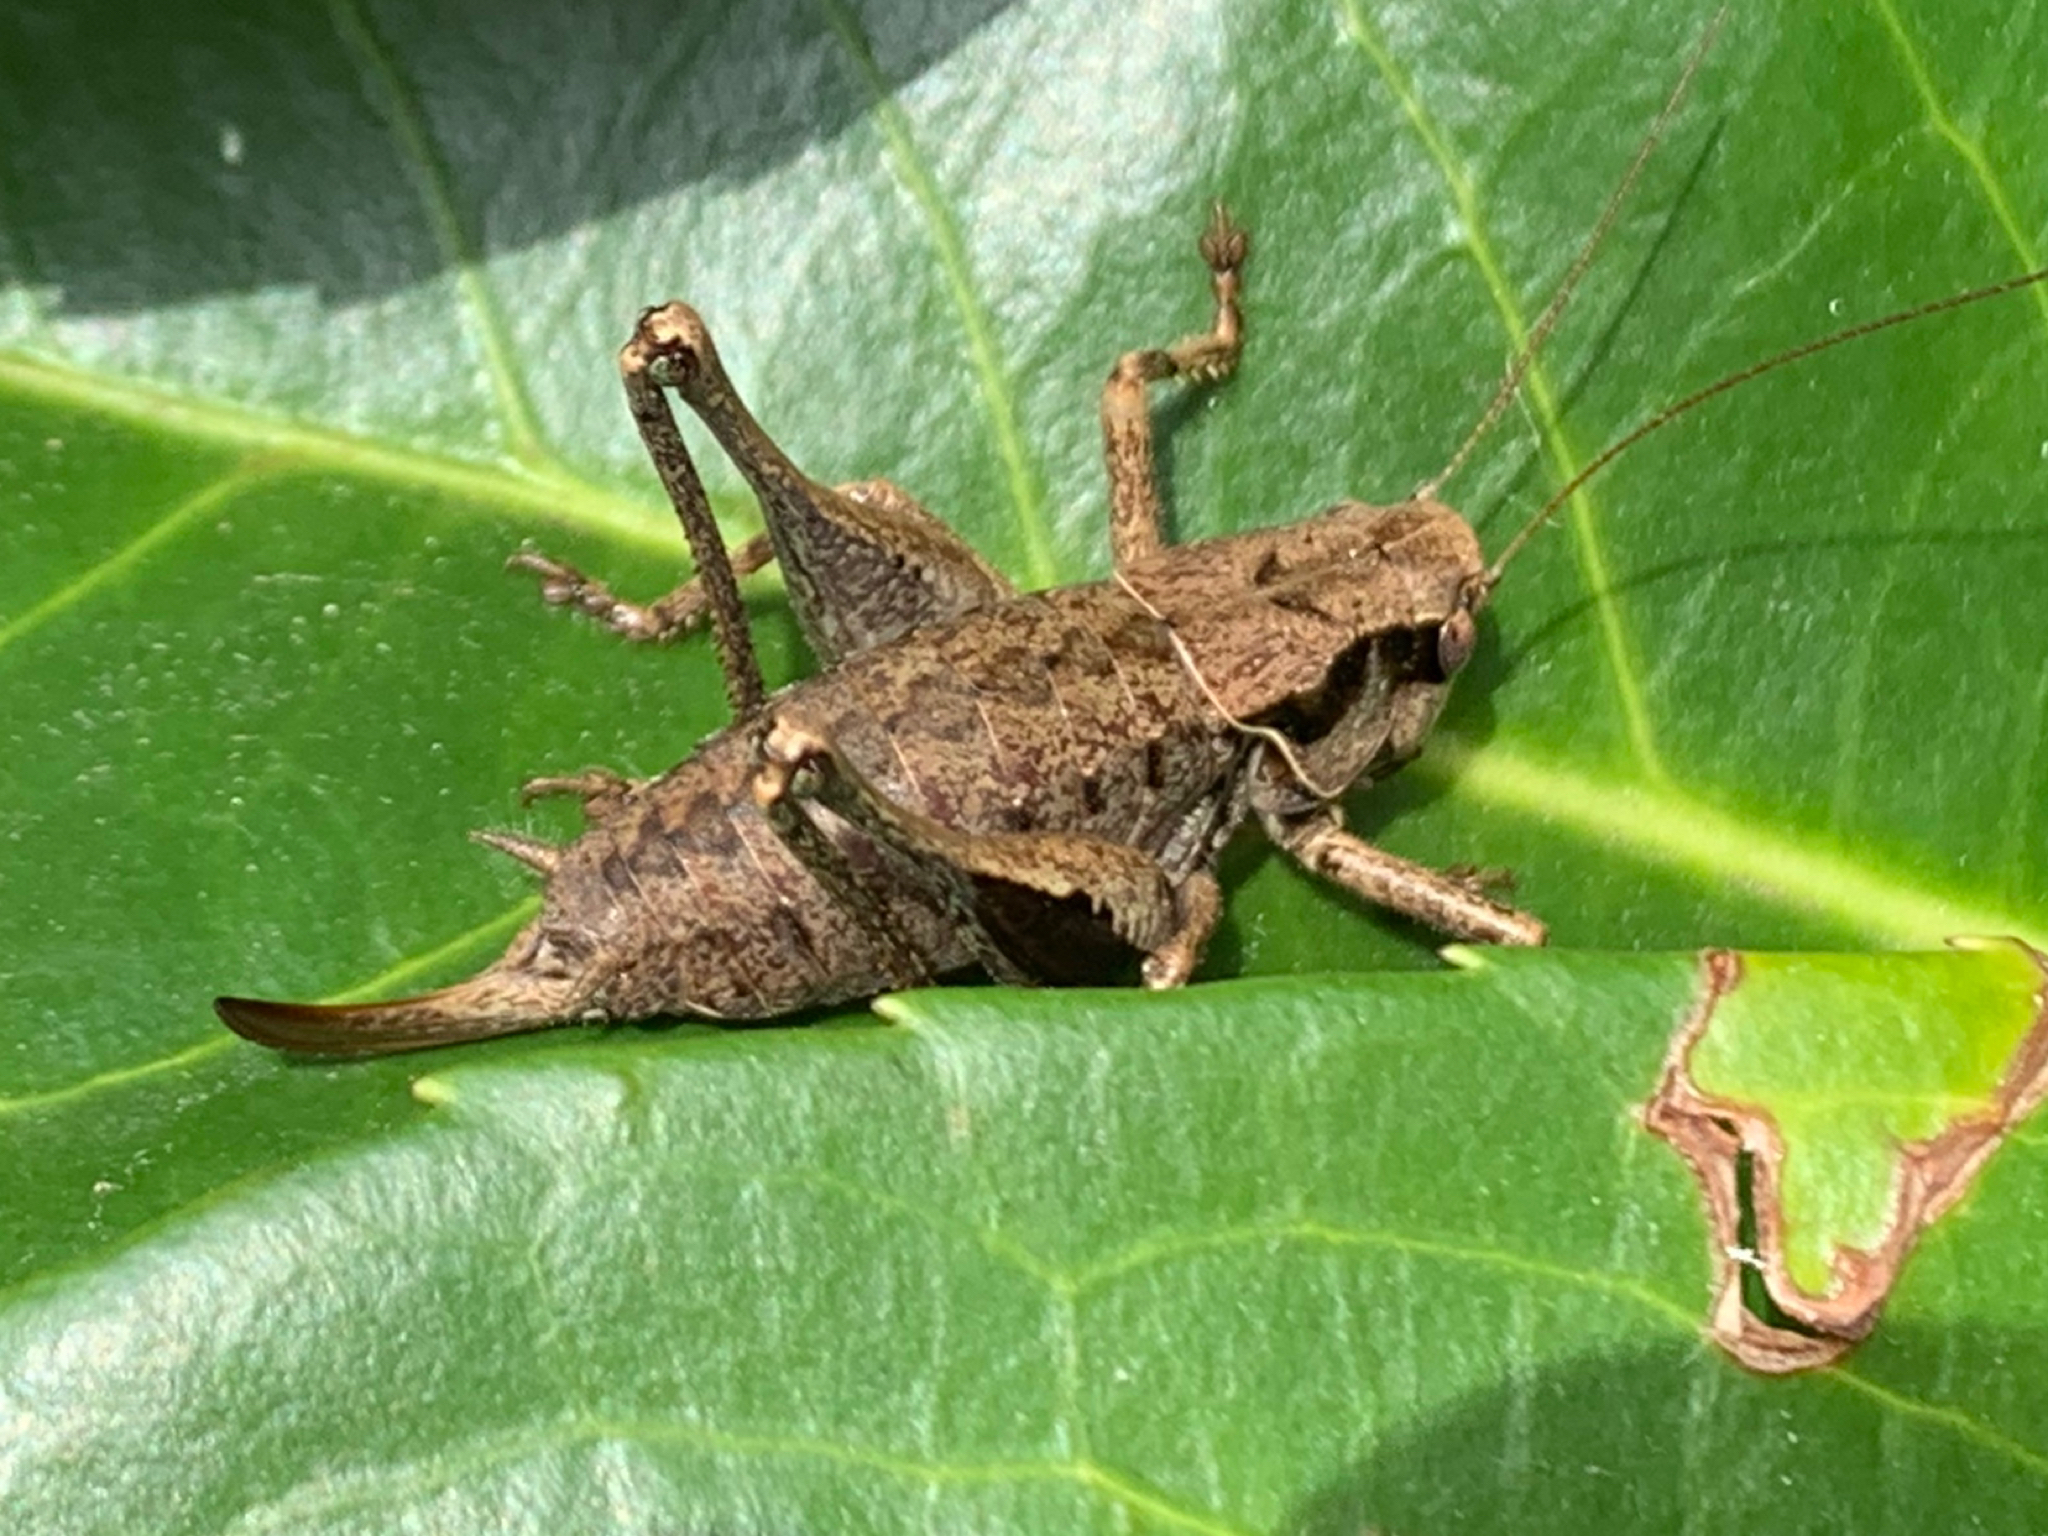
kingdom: Animalia
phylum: Arthropoda
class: Insecta
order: Orthoptera
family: Tettigoniidae
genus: Pholidoptera
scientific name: Pholidoptera griseoaptera
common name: Dark bush-cricket
